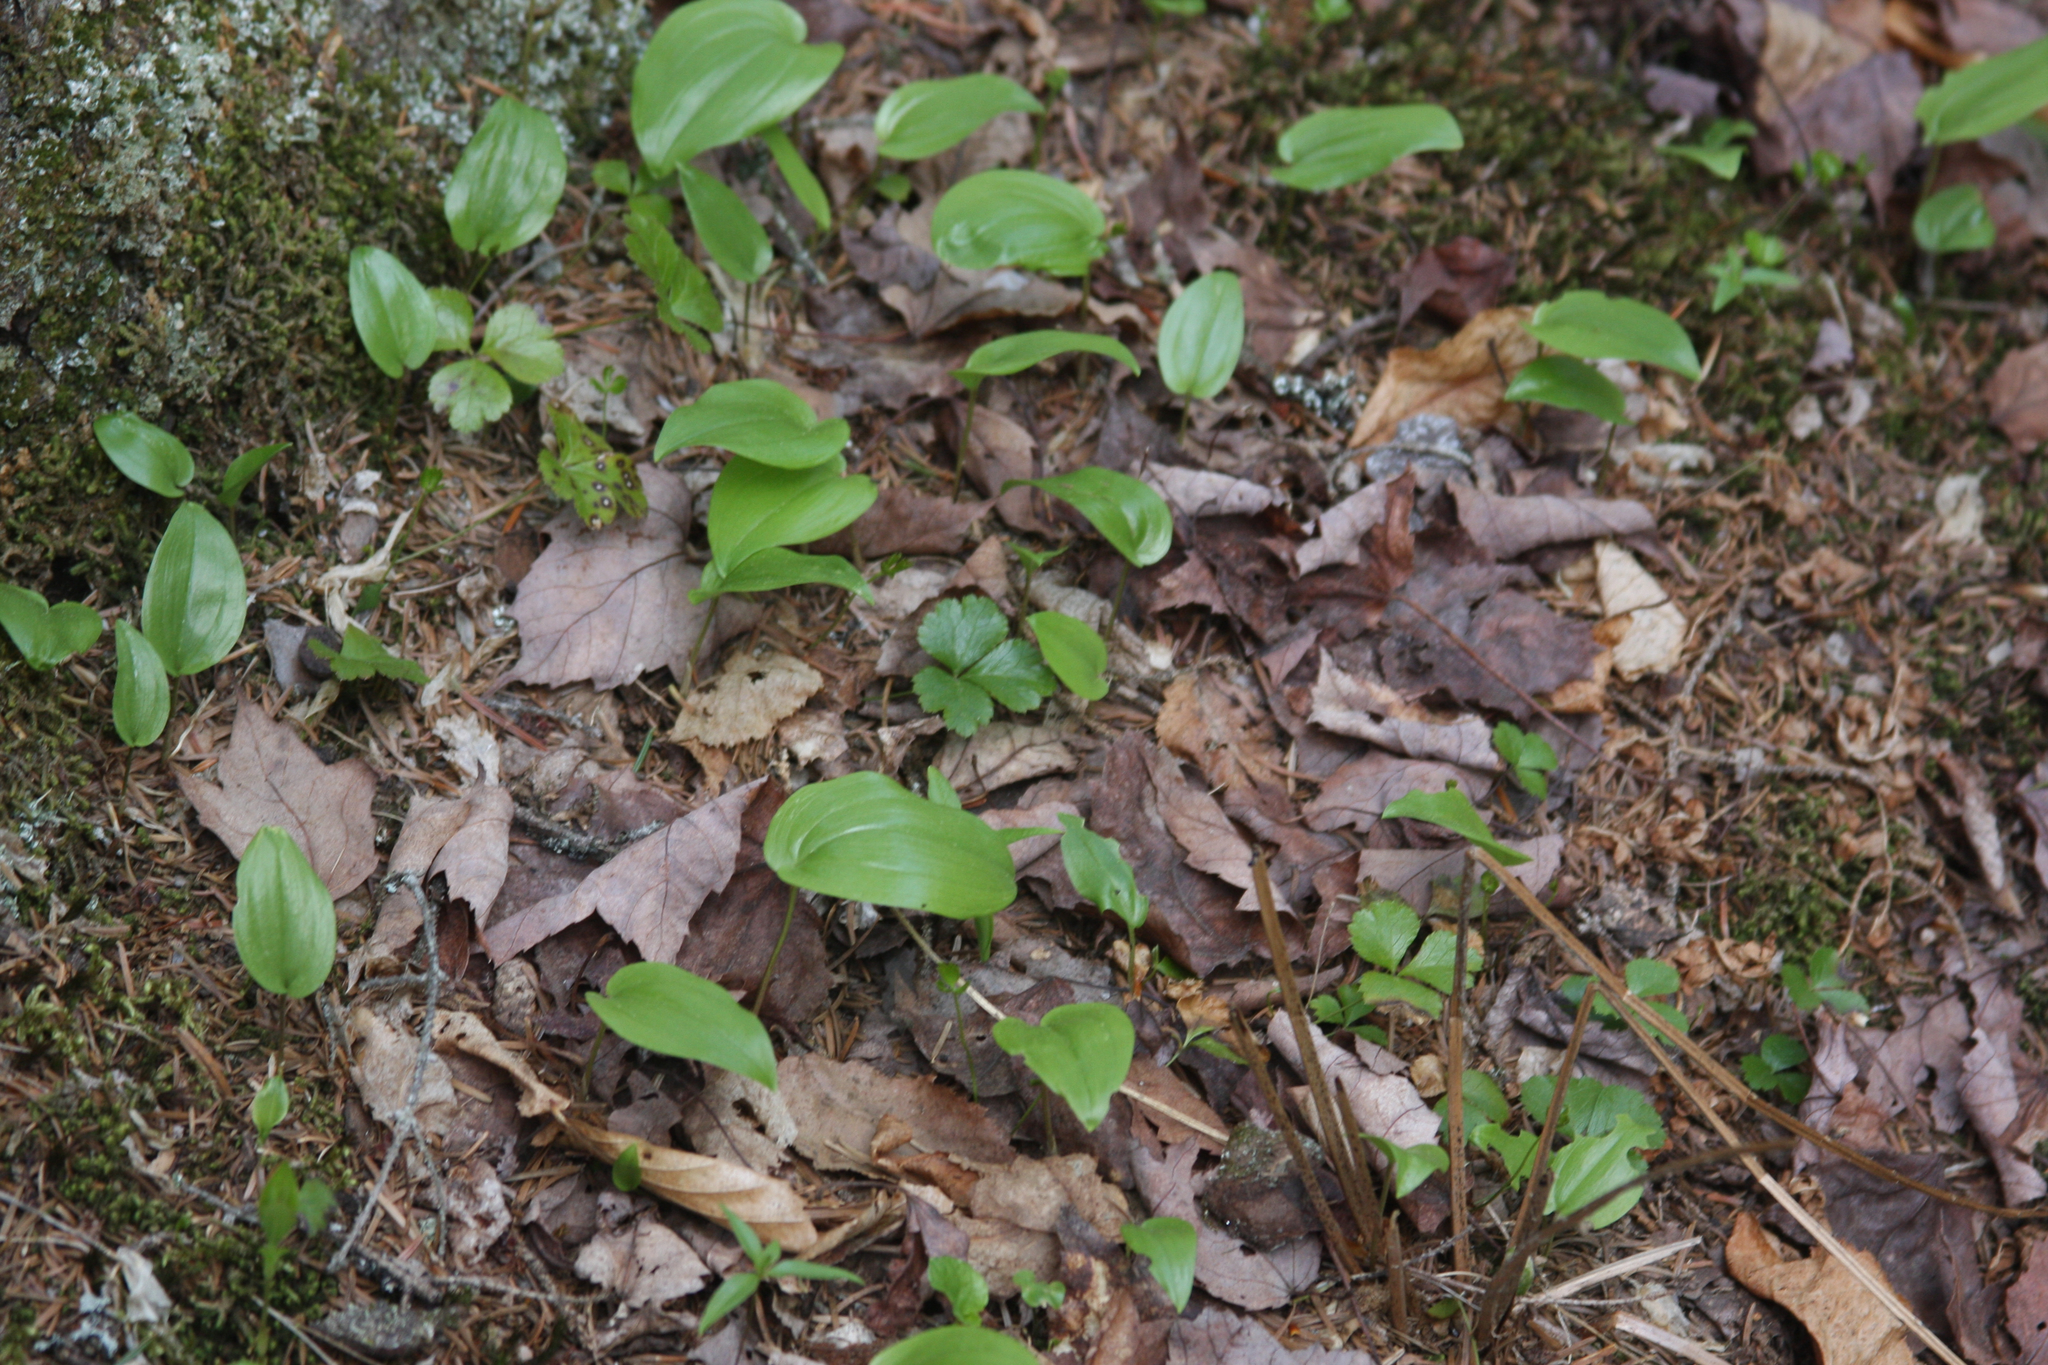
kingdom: Plantae
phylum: Tracheophyta
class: Liliopsida
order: Asparagales
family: Asparagaceae
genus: Maianthemum
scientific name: Maianthemum canadense
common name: False lily-of-the-valley
